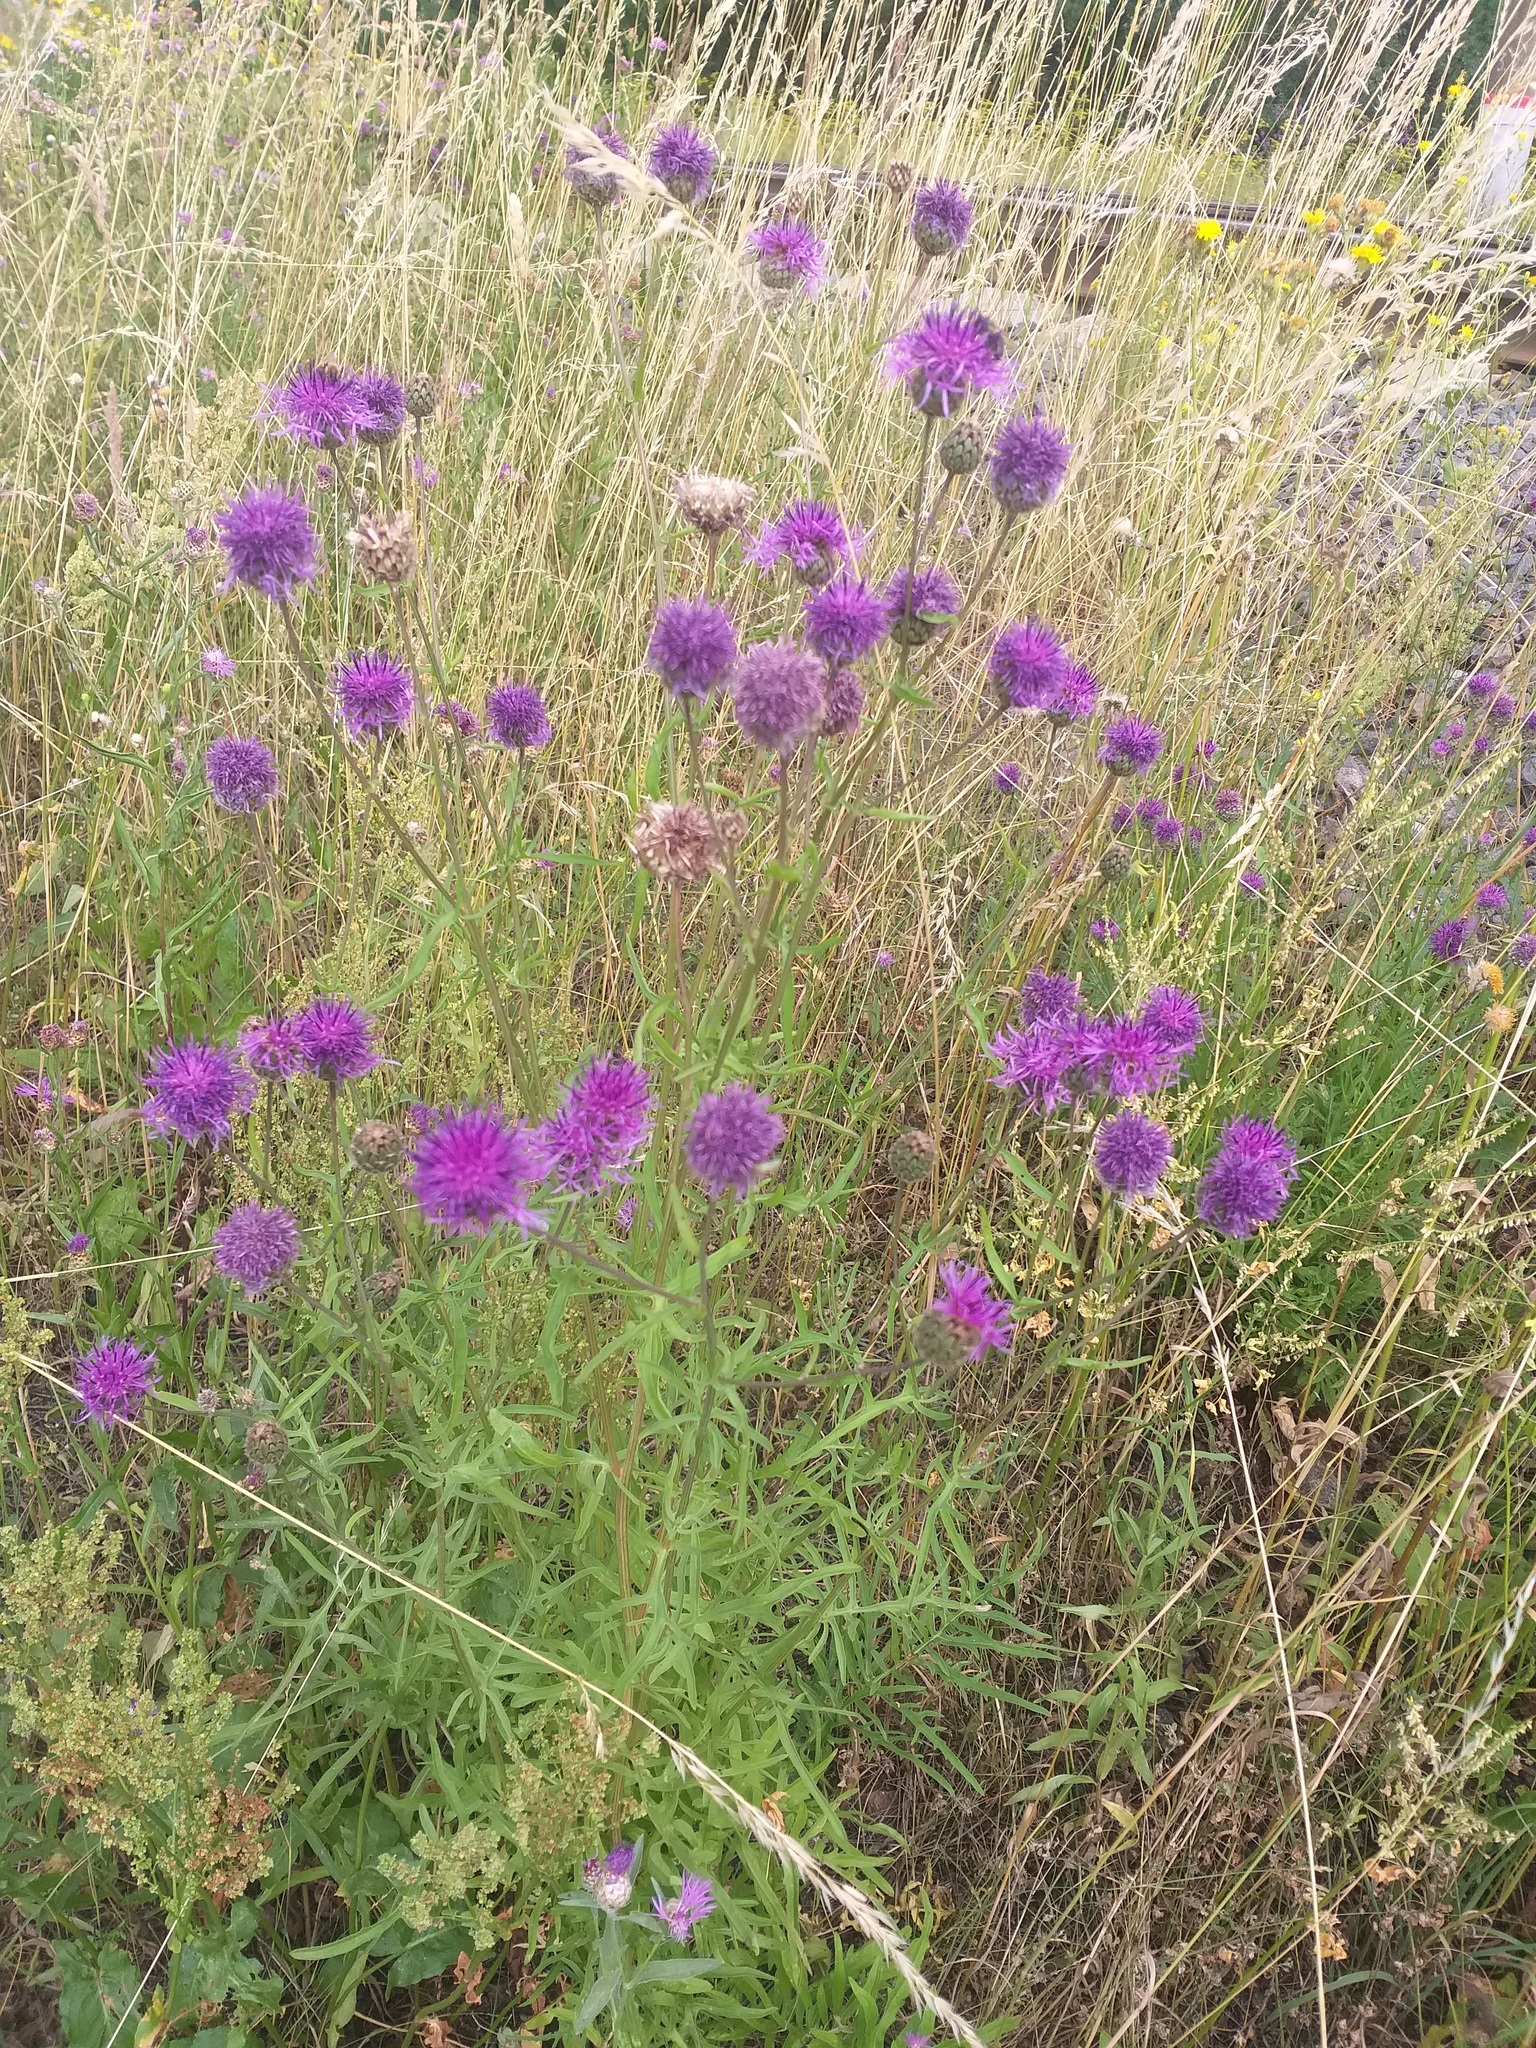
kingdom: Plantae
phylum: Tracheophyta
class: Magnoliopsida
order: Asterales
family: Asteraceae
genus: Centaurea
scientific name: Centaurea scabiosa
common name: Greater knapweed
